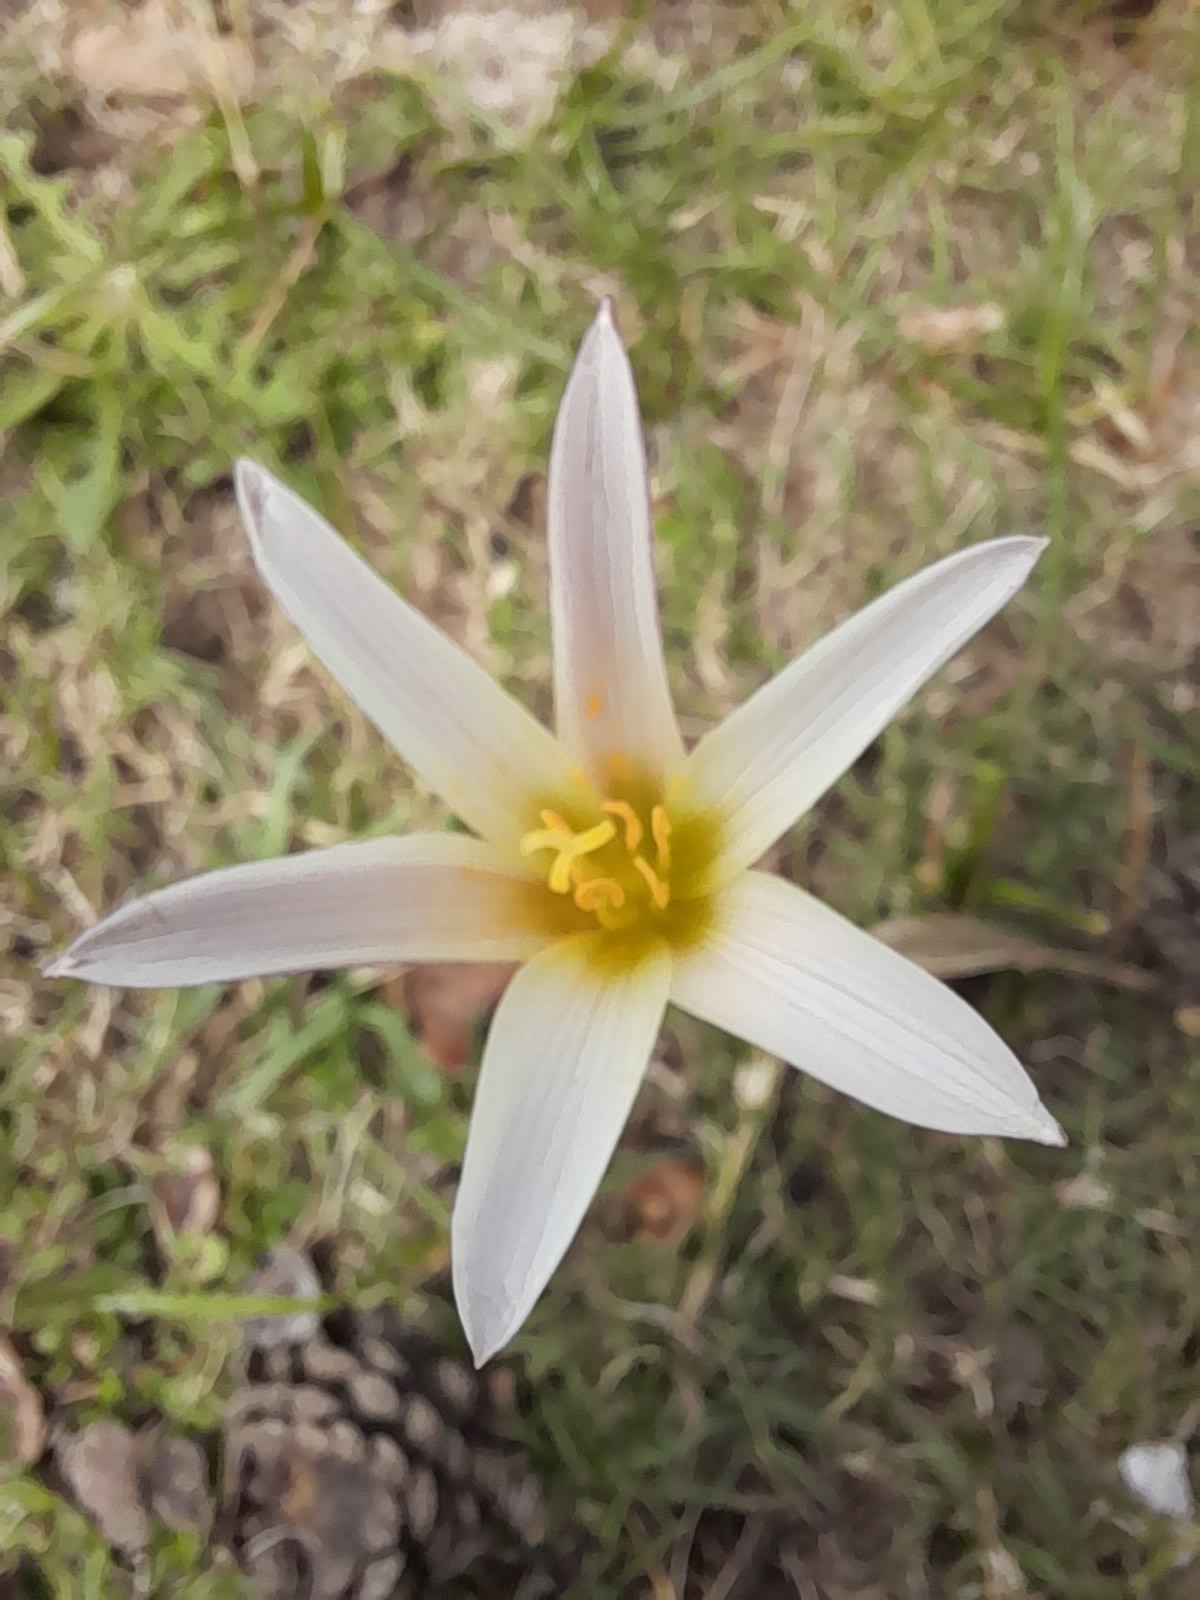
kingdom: Plantae
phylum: Tracheophyta
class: Liliopsida
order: Asparagales
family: Amaryllidaceae
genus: Zephyranthes
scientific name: Zephyranthes mesochloa
